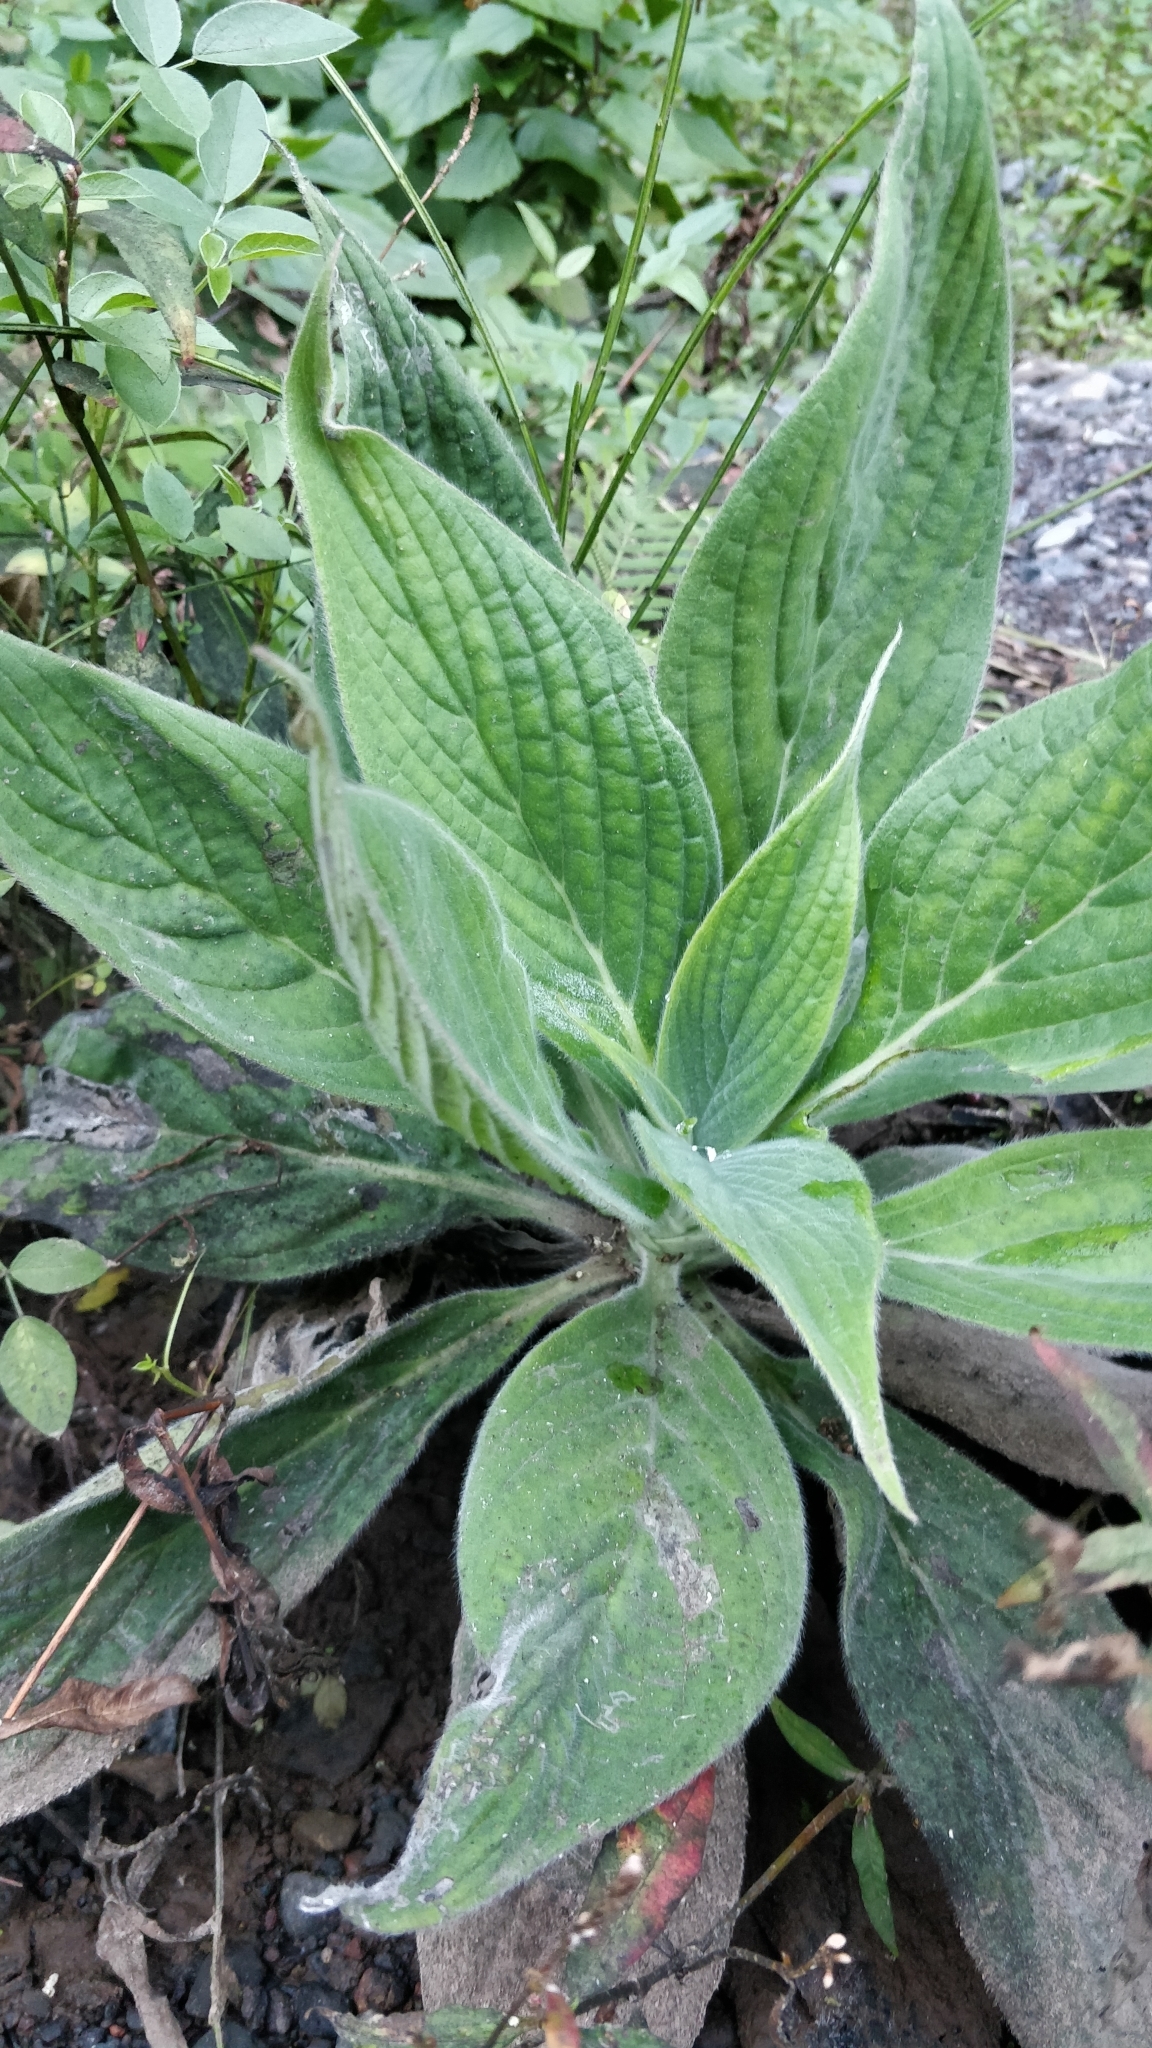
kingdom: Plantae
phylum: Tracheophyta
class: Magnoliopsida
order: Boraginales
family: Boraginaceae
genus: Echium
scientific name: Echium candicans
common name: Pride of madeira
